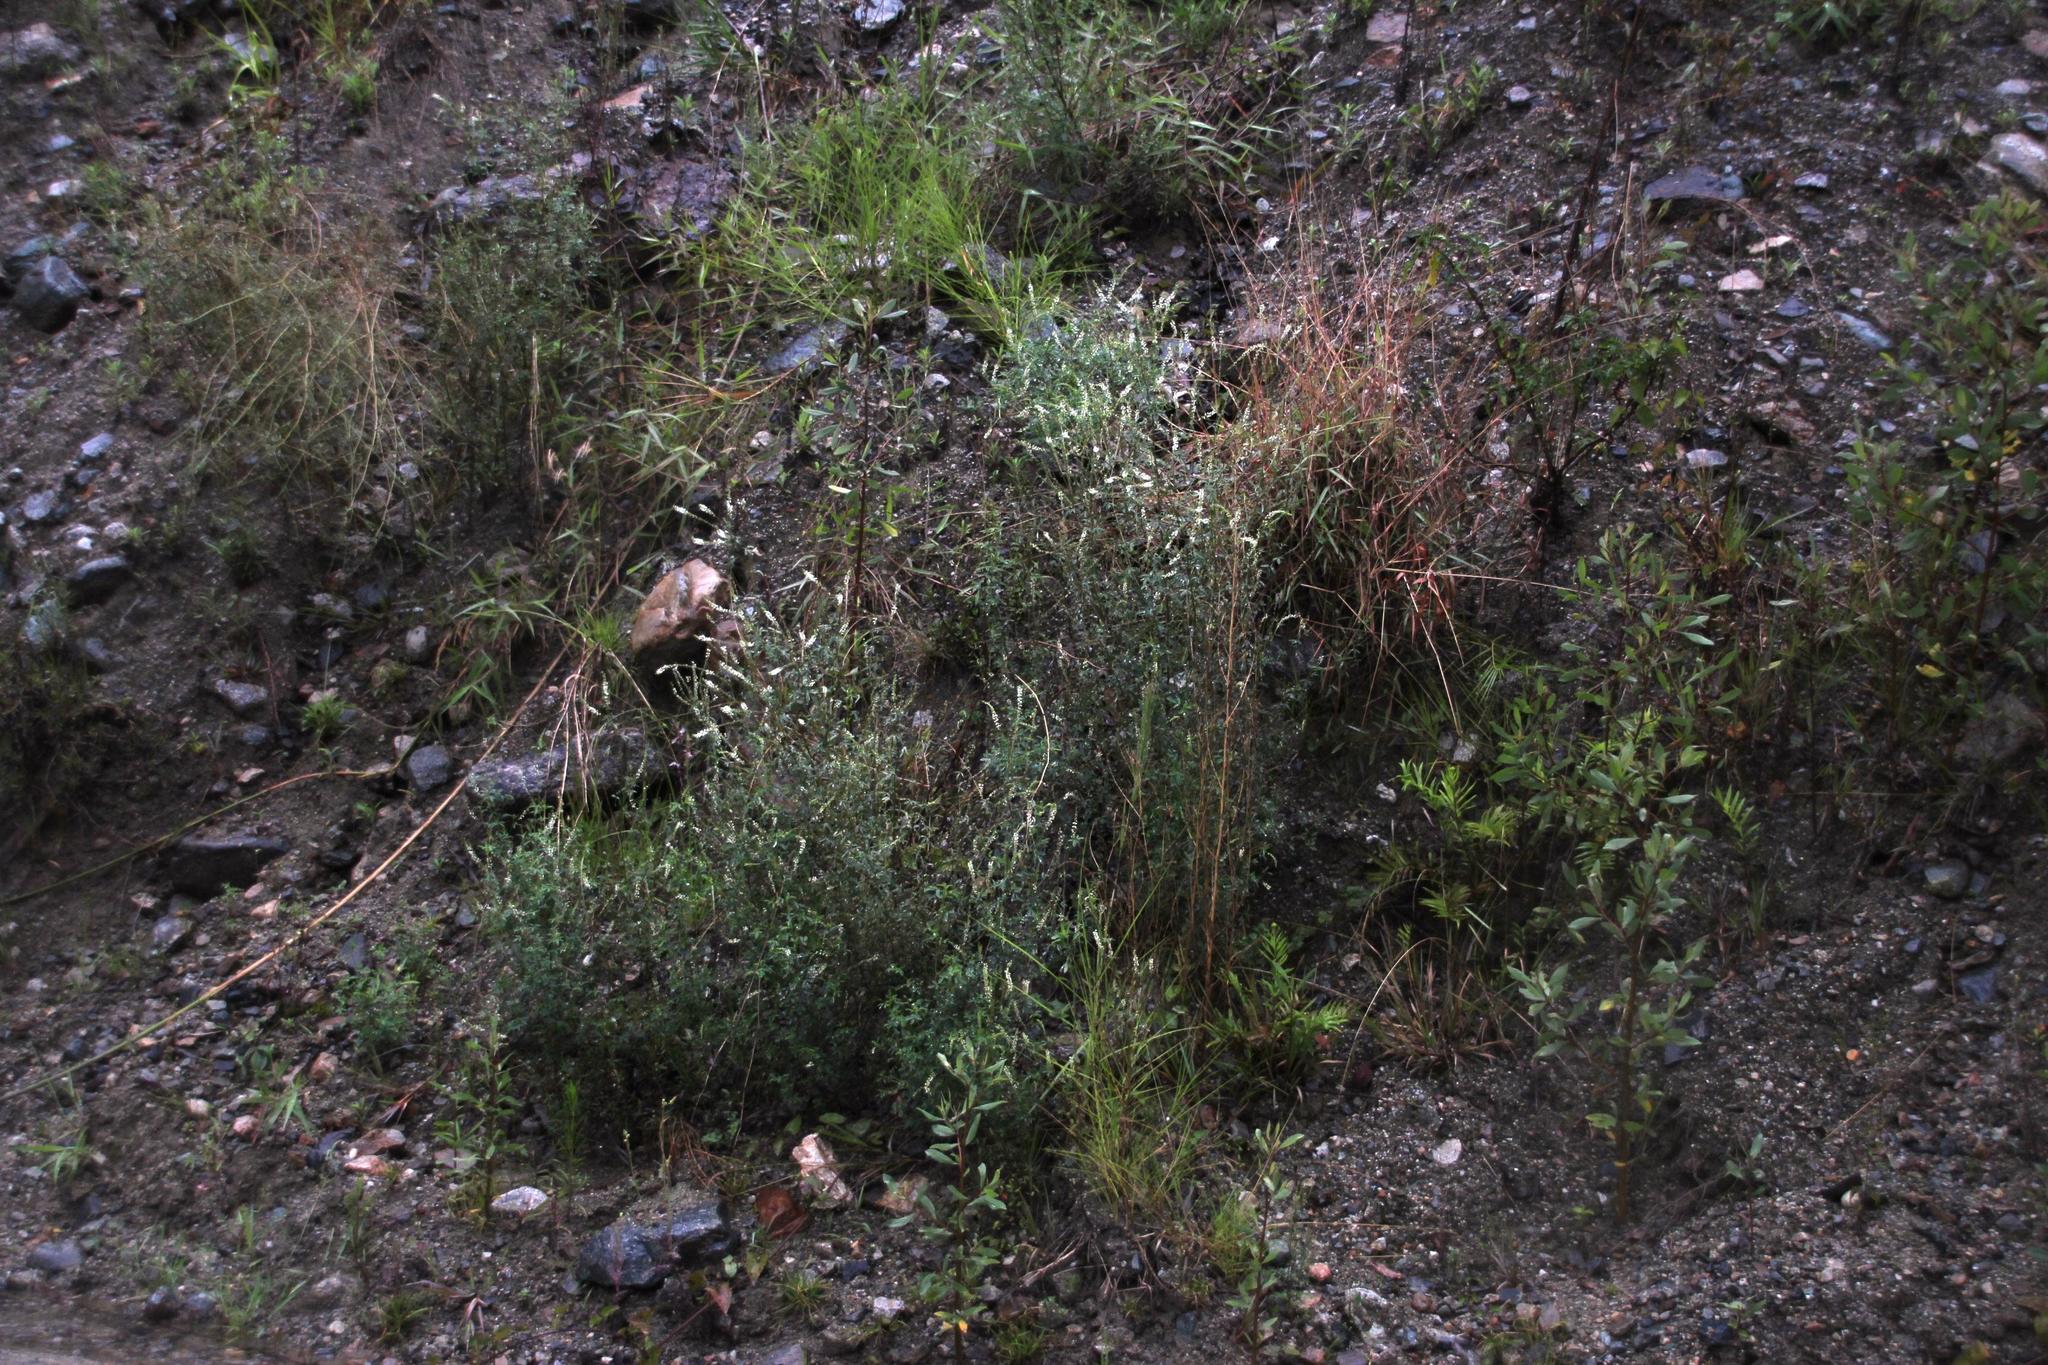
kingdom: Plantae
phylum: Tracheophyta
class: Magnoliopsida
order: Fabales
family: Fabaceae
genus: Melilotus
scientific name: Melilotus albus
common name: White melilot
